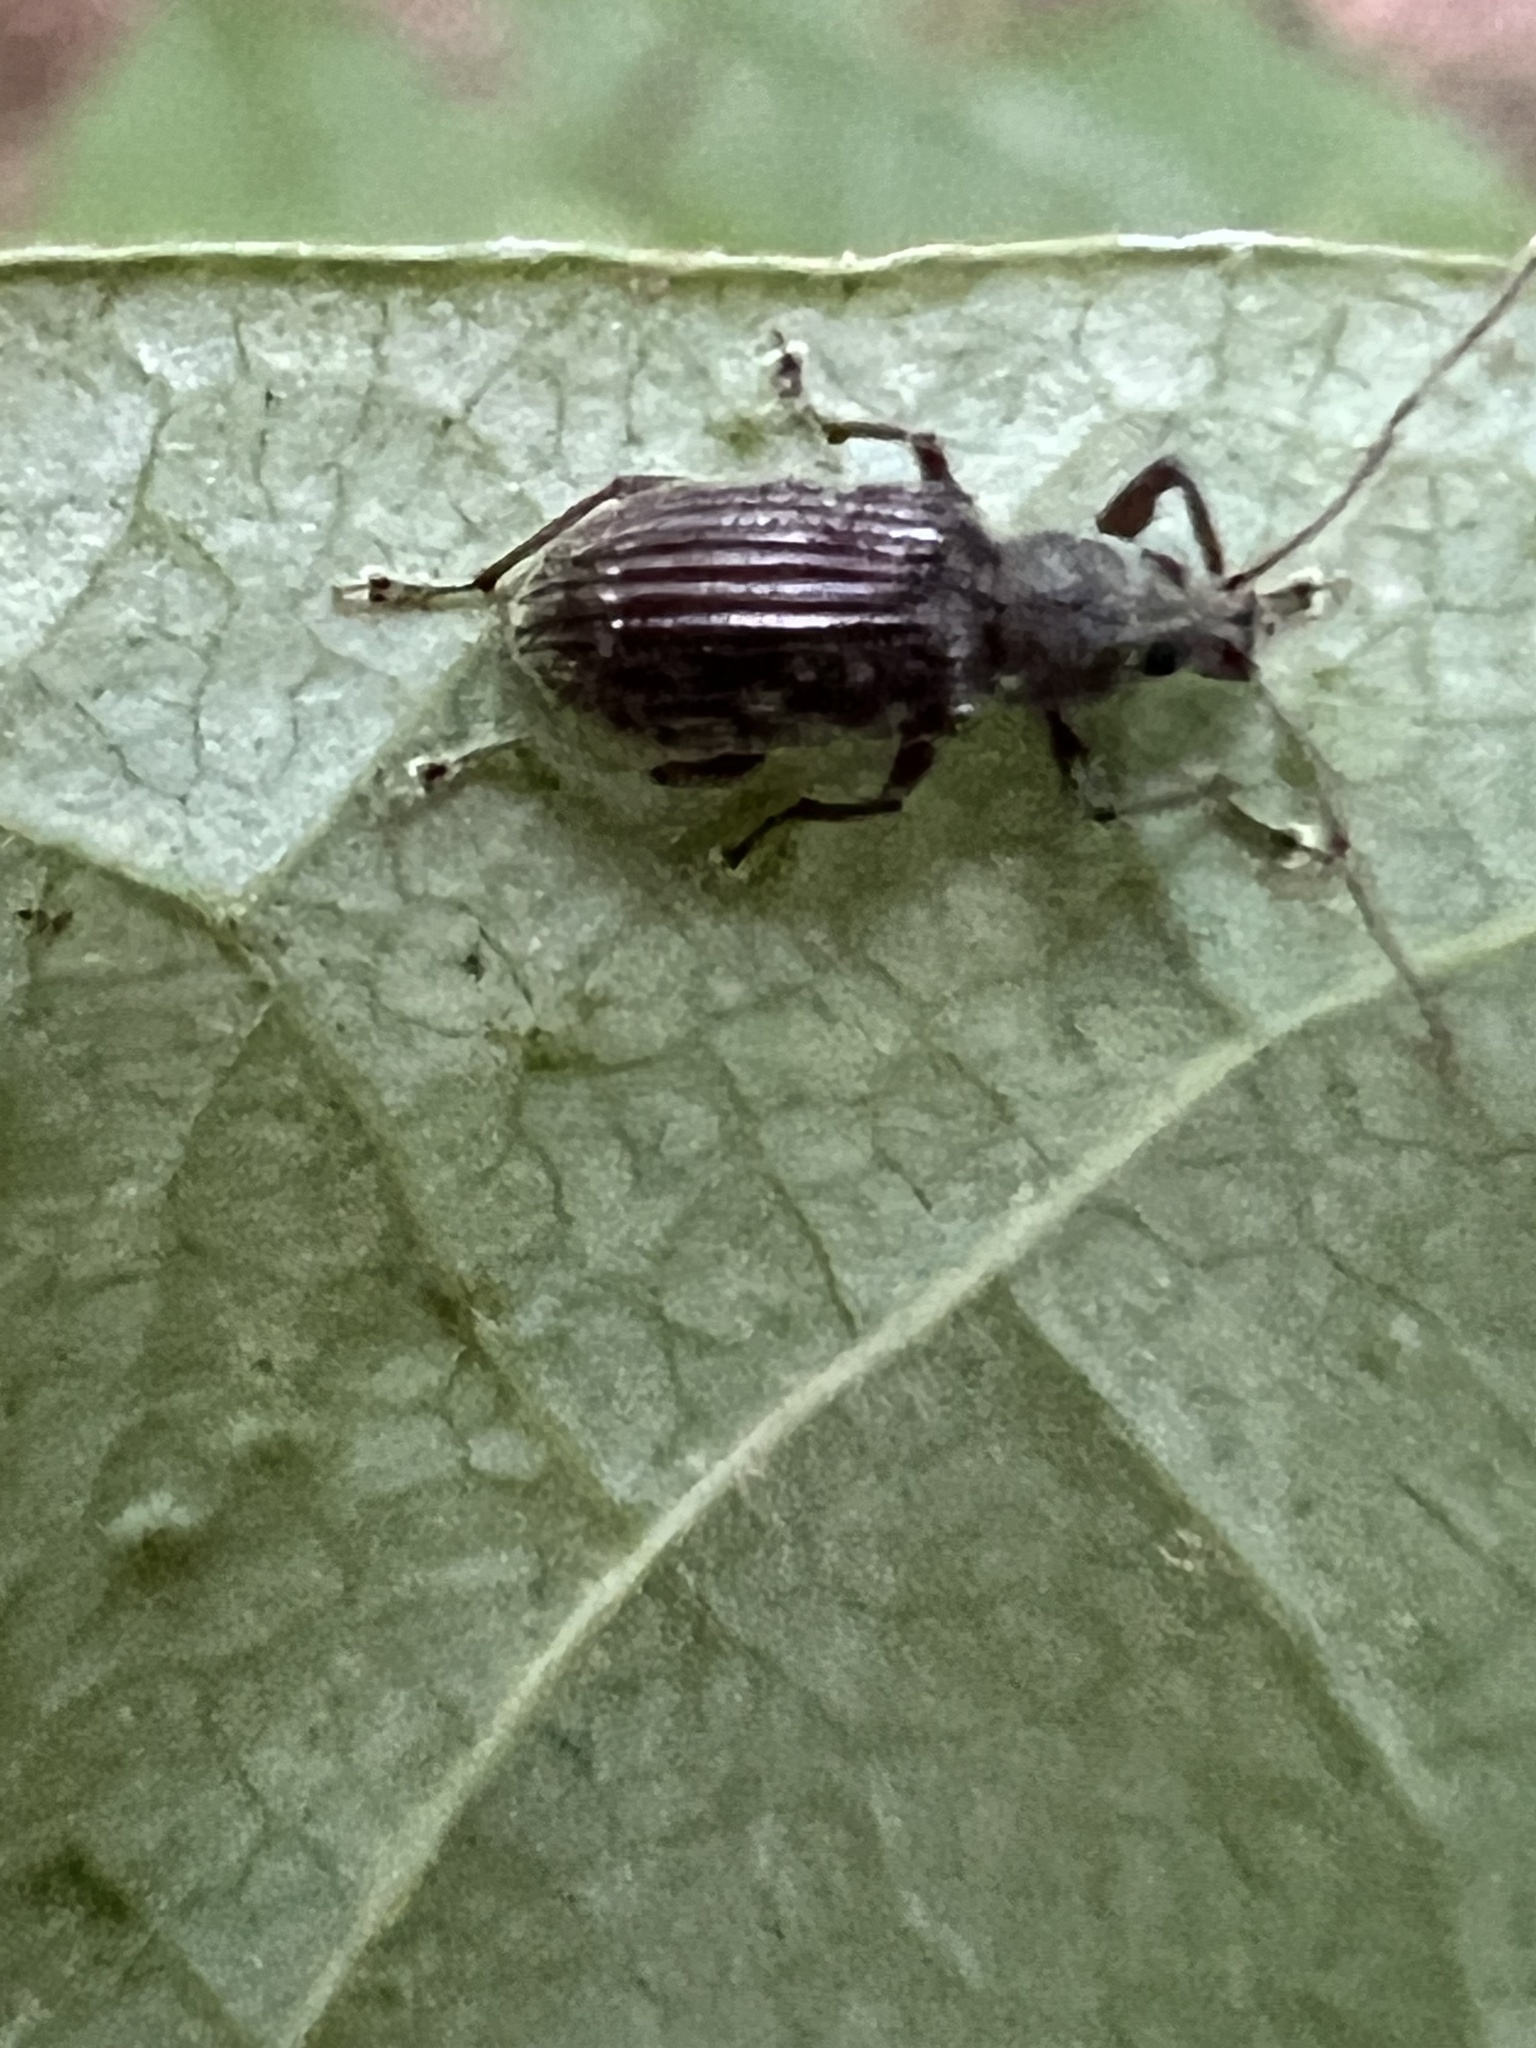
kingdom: Animalia
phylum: Arthropoda
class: Insecta
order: Coleoptera
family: Curculionidae
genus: Cyrtepistomus
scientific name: Cyrtepistomus castaneus
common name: Weevil
